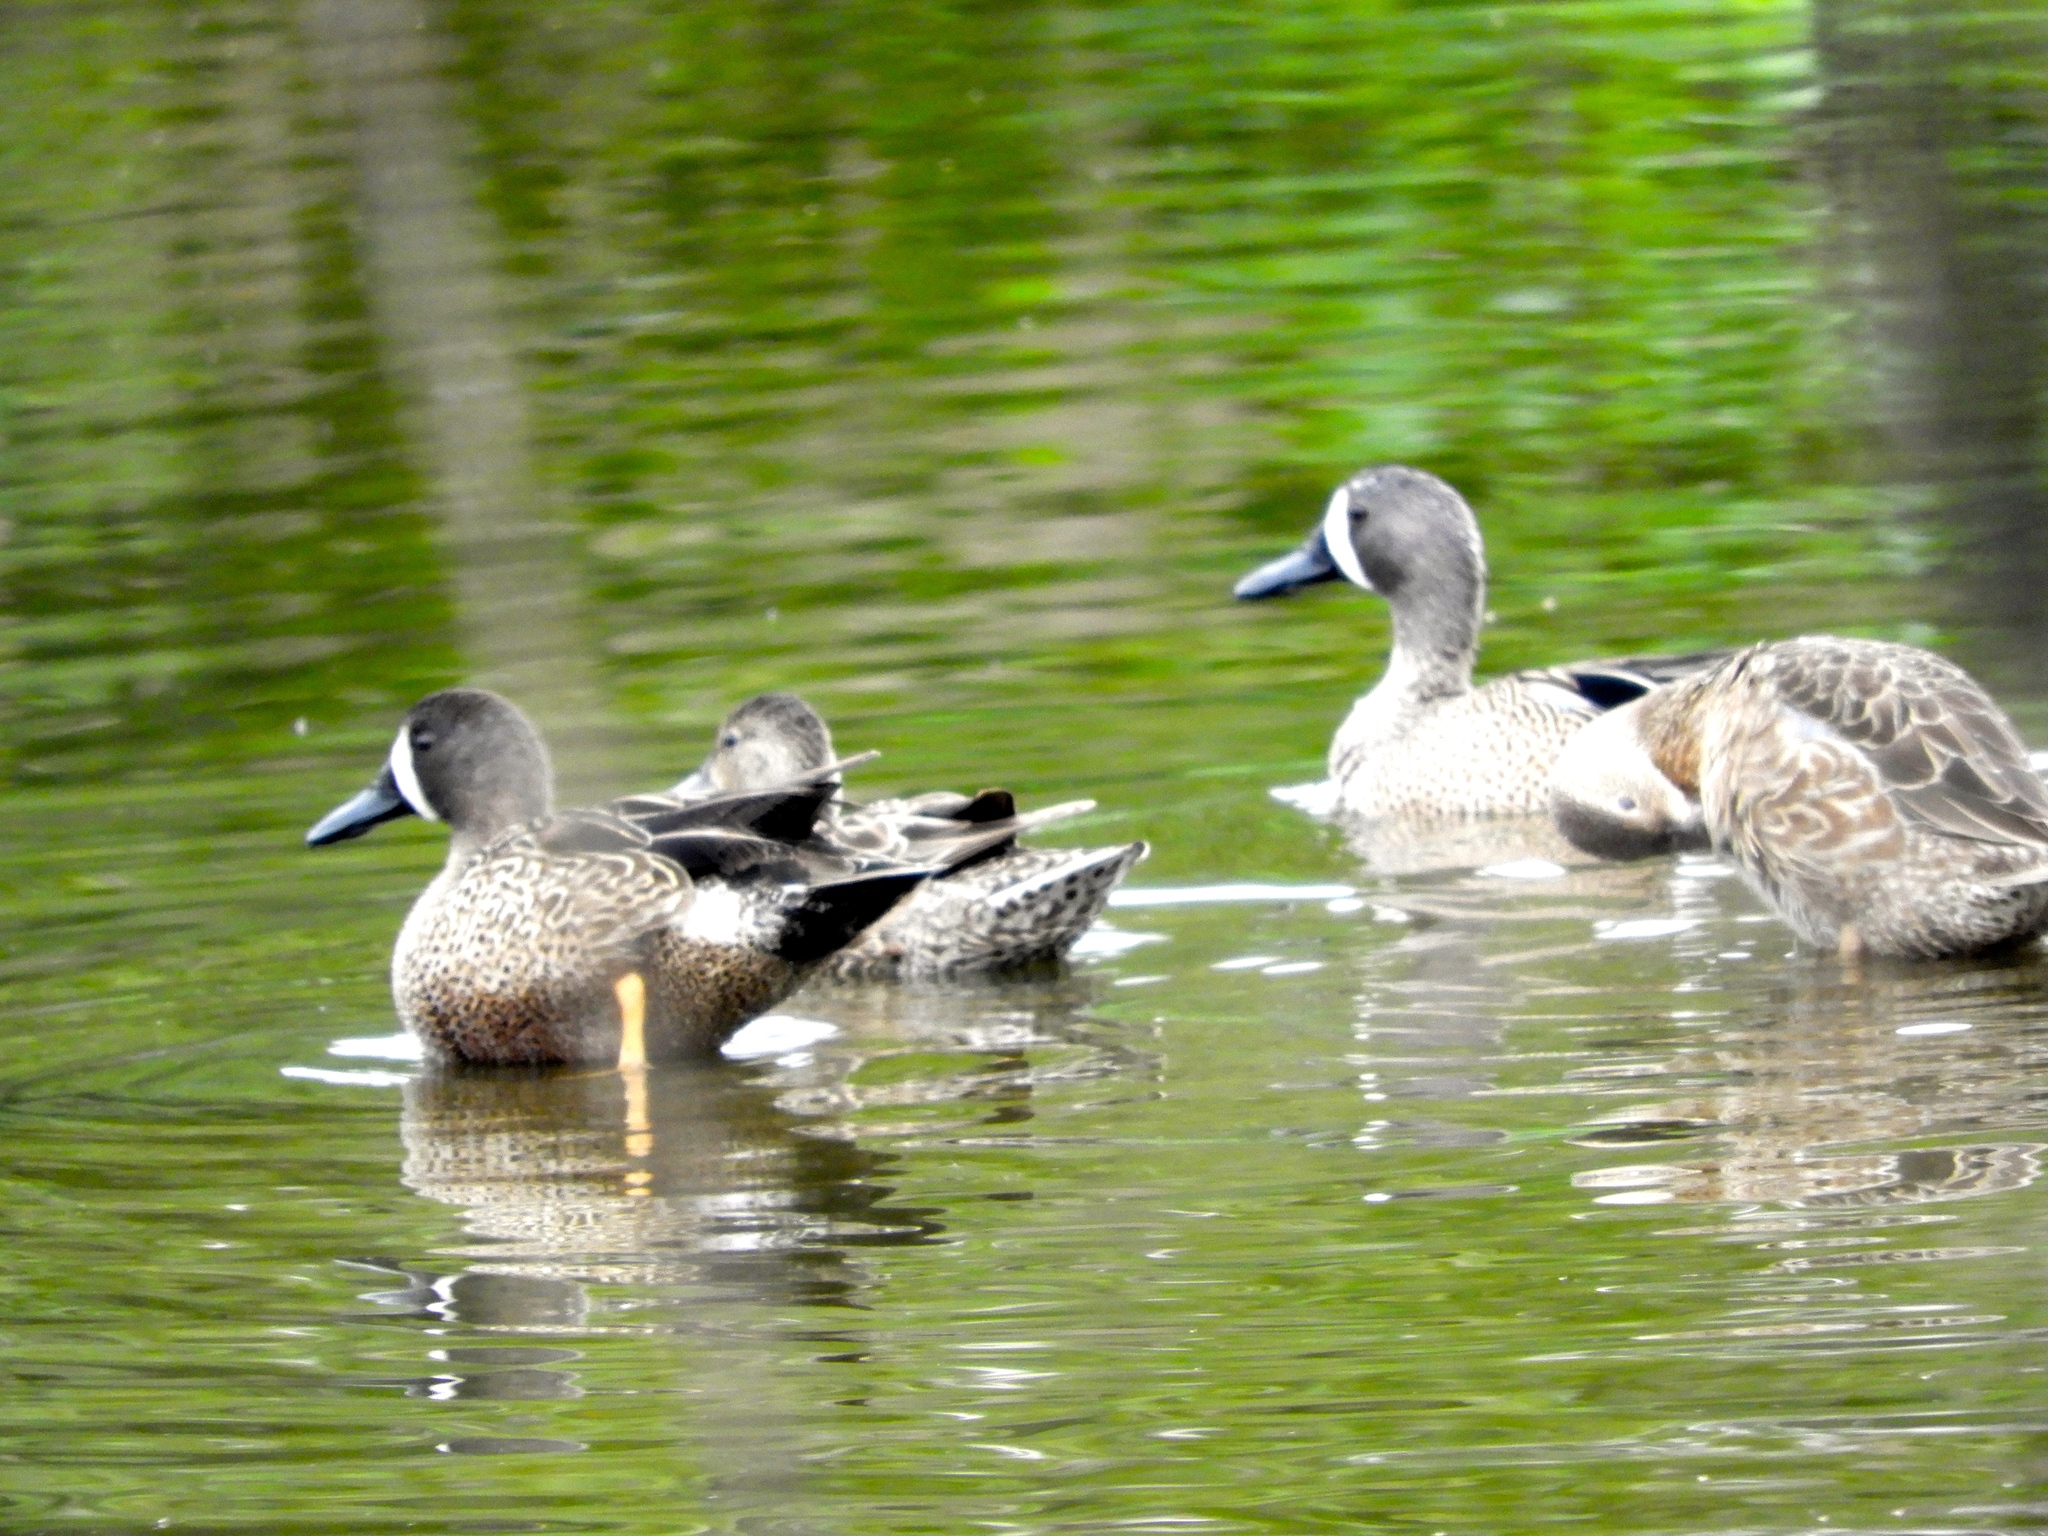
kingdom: Animalia
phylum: Chordata
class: Aves
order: Anseriformes
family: Anatidae
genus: Spatula
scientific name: Spatula discors
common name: Blue-winged teal
